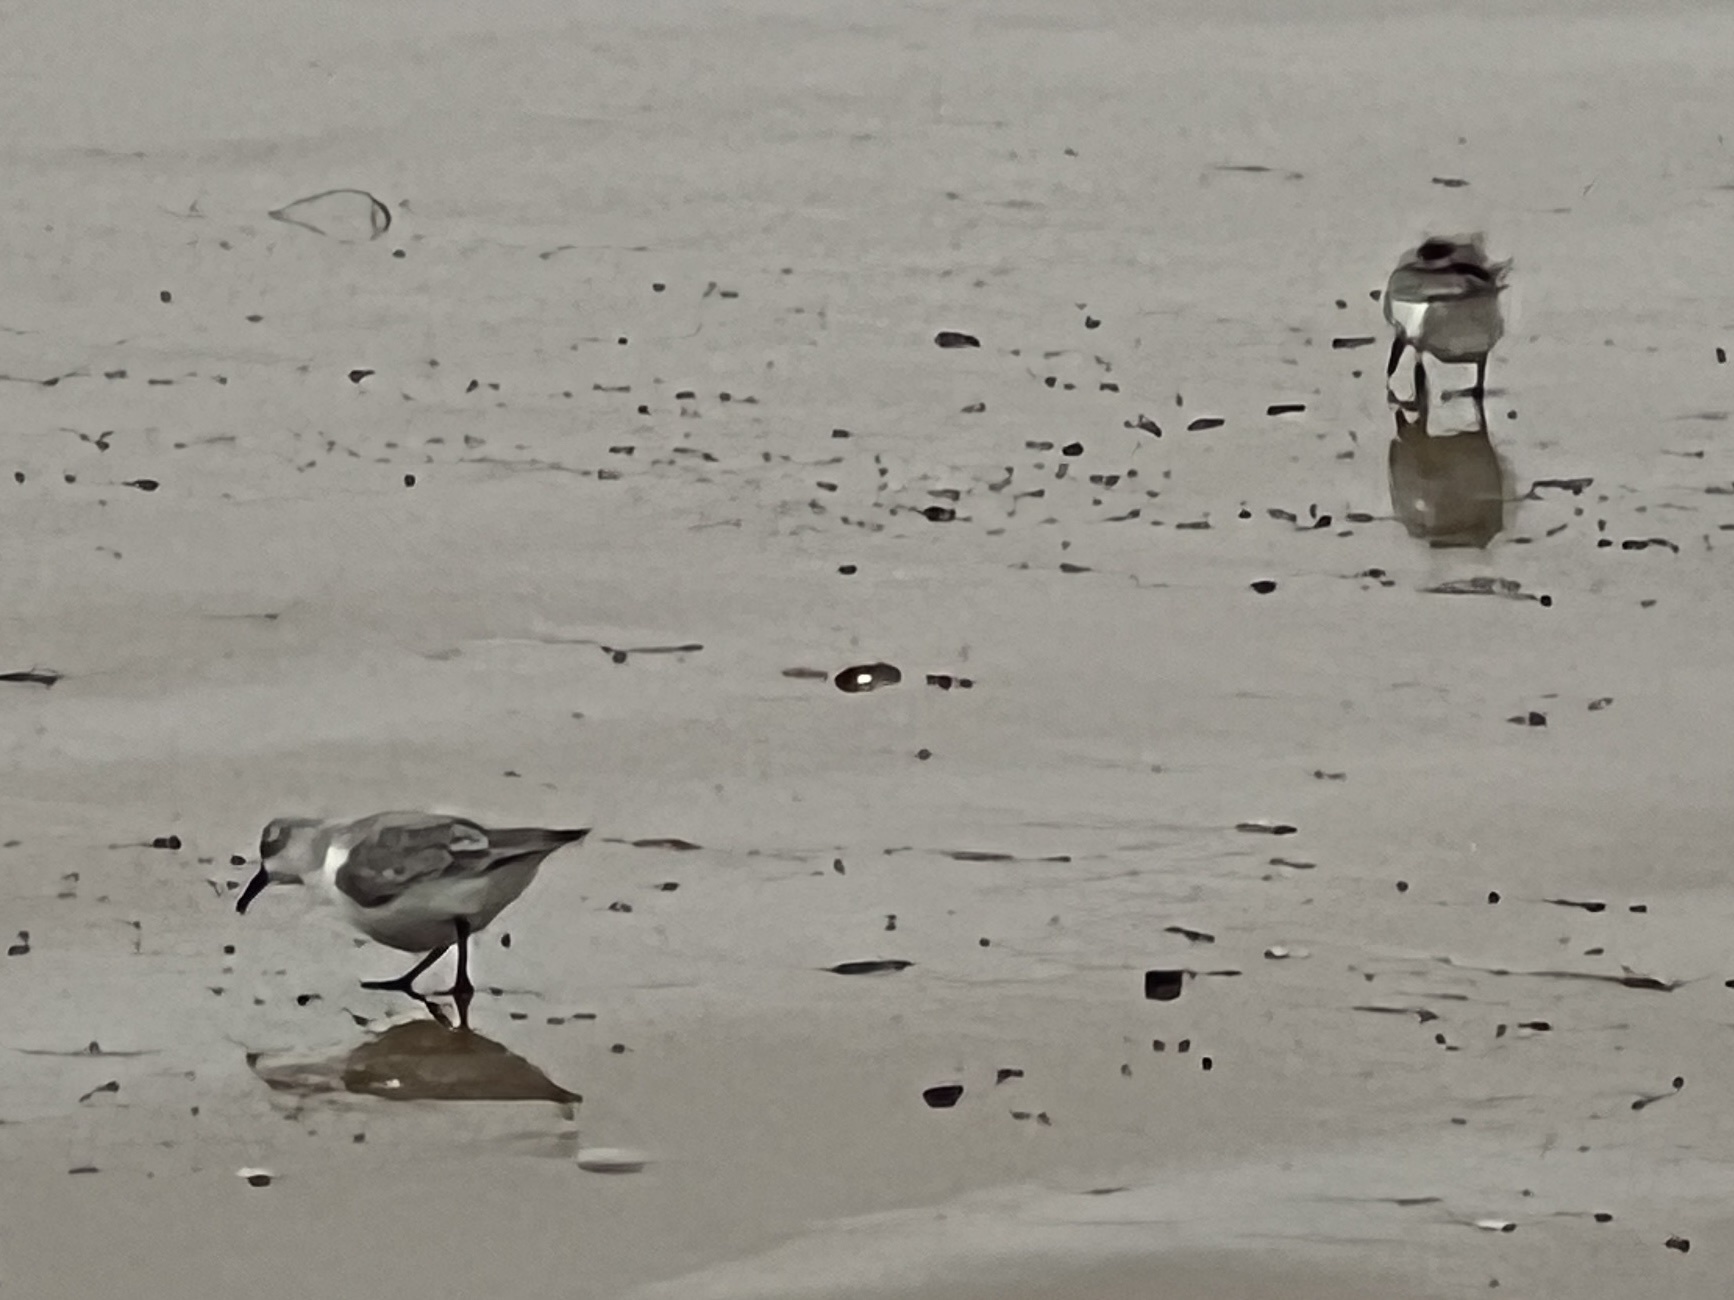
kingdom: Animalia
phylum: Chordata
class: Aves
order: Charadriiformes
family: Scolopacidae
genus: Calidris
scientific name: Calidris alba
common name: Sanderling
